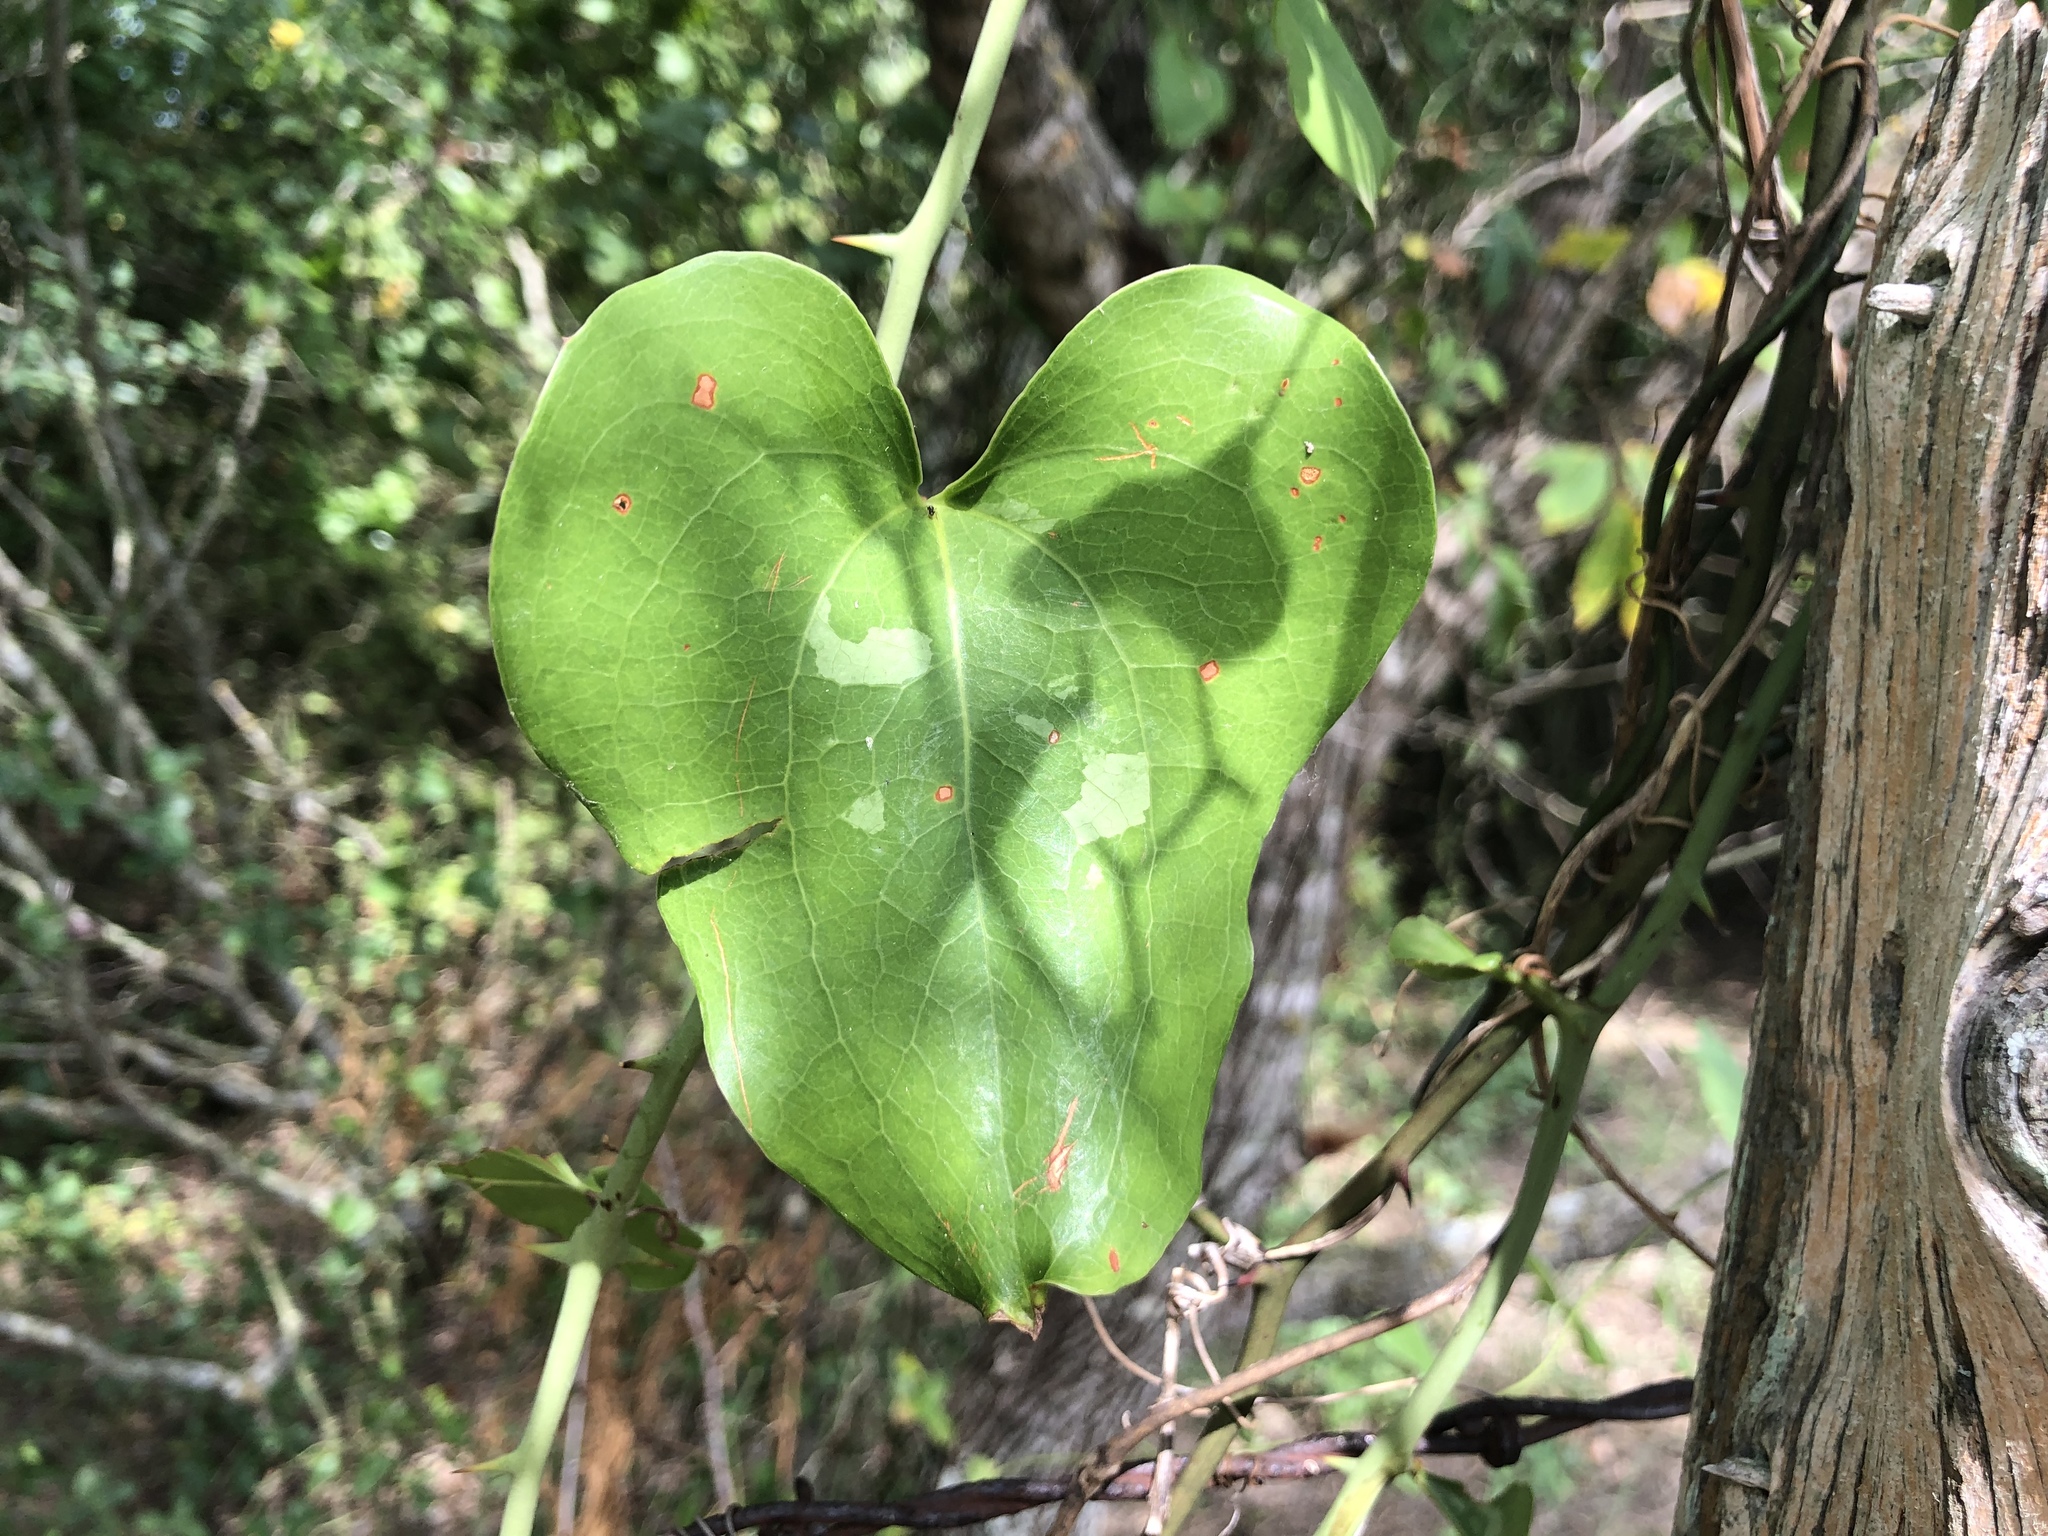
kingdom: Plantae
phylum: Tracheophyta
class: Liliopsida
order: Liliales
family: Smilacaceae
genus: Smilax
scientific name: Smilax bona-nox
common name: Catbrier
